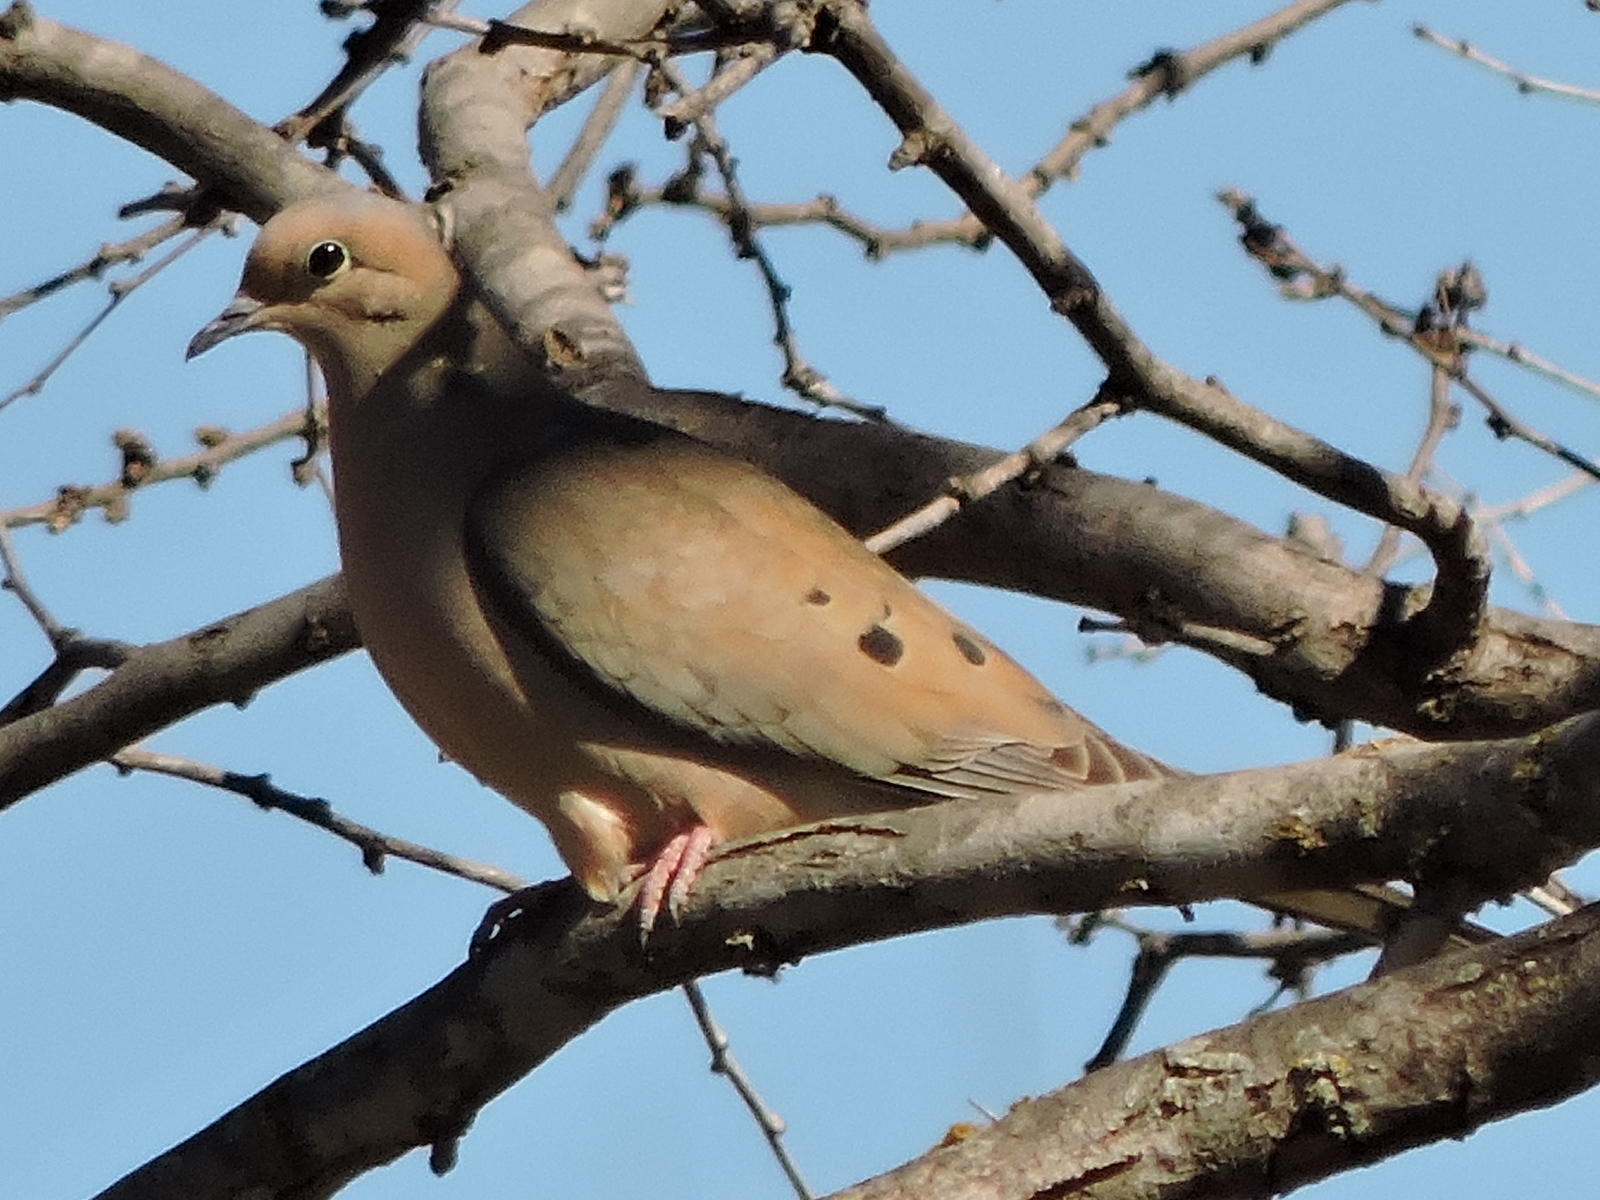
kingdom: Animalia
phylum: Chordata
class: Aves
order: Columbiformes
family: Columbidae
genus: Zenaida
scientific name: Zenaida macroura
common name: Mourning dove
